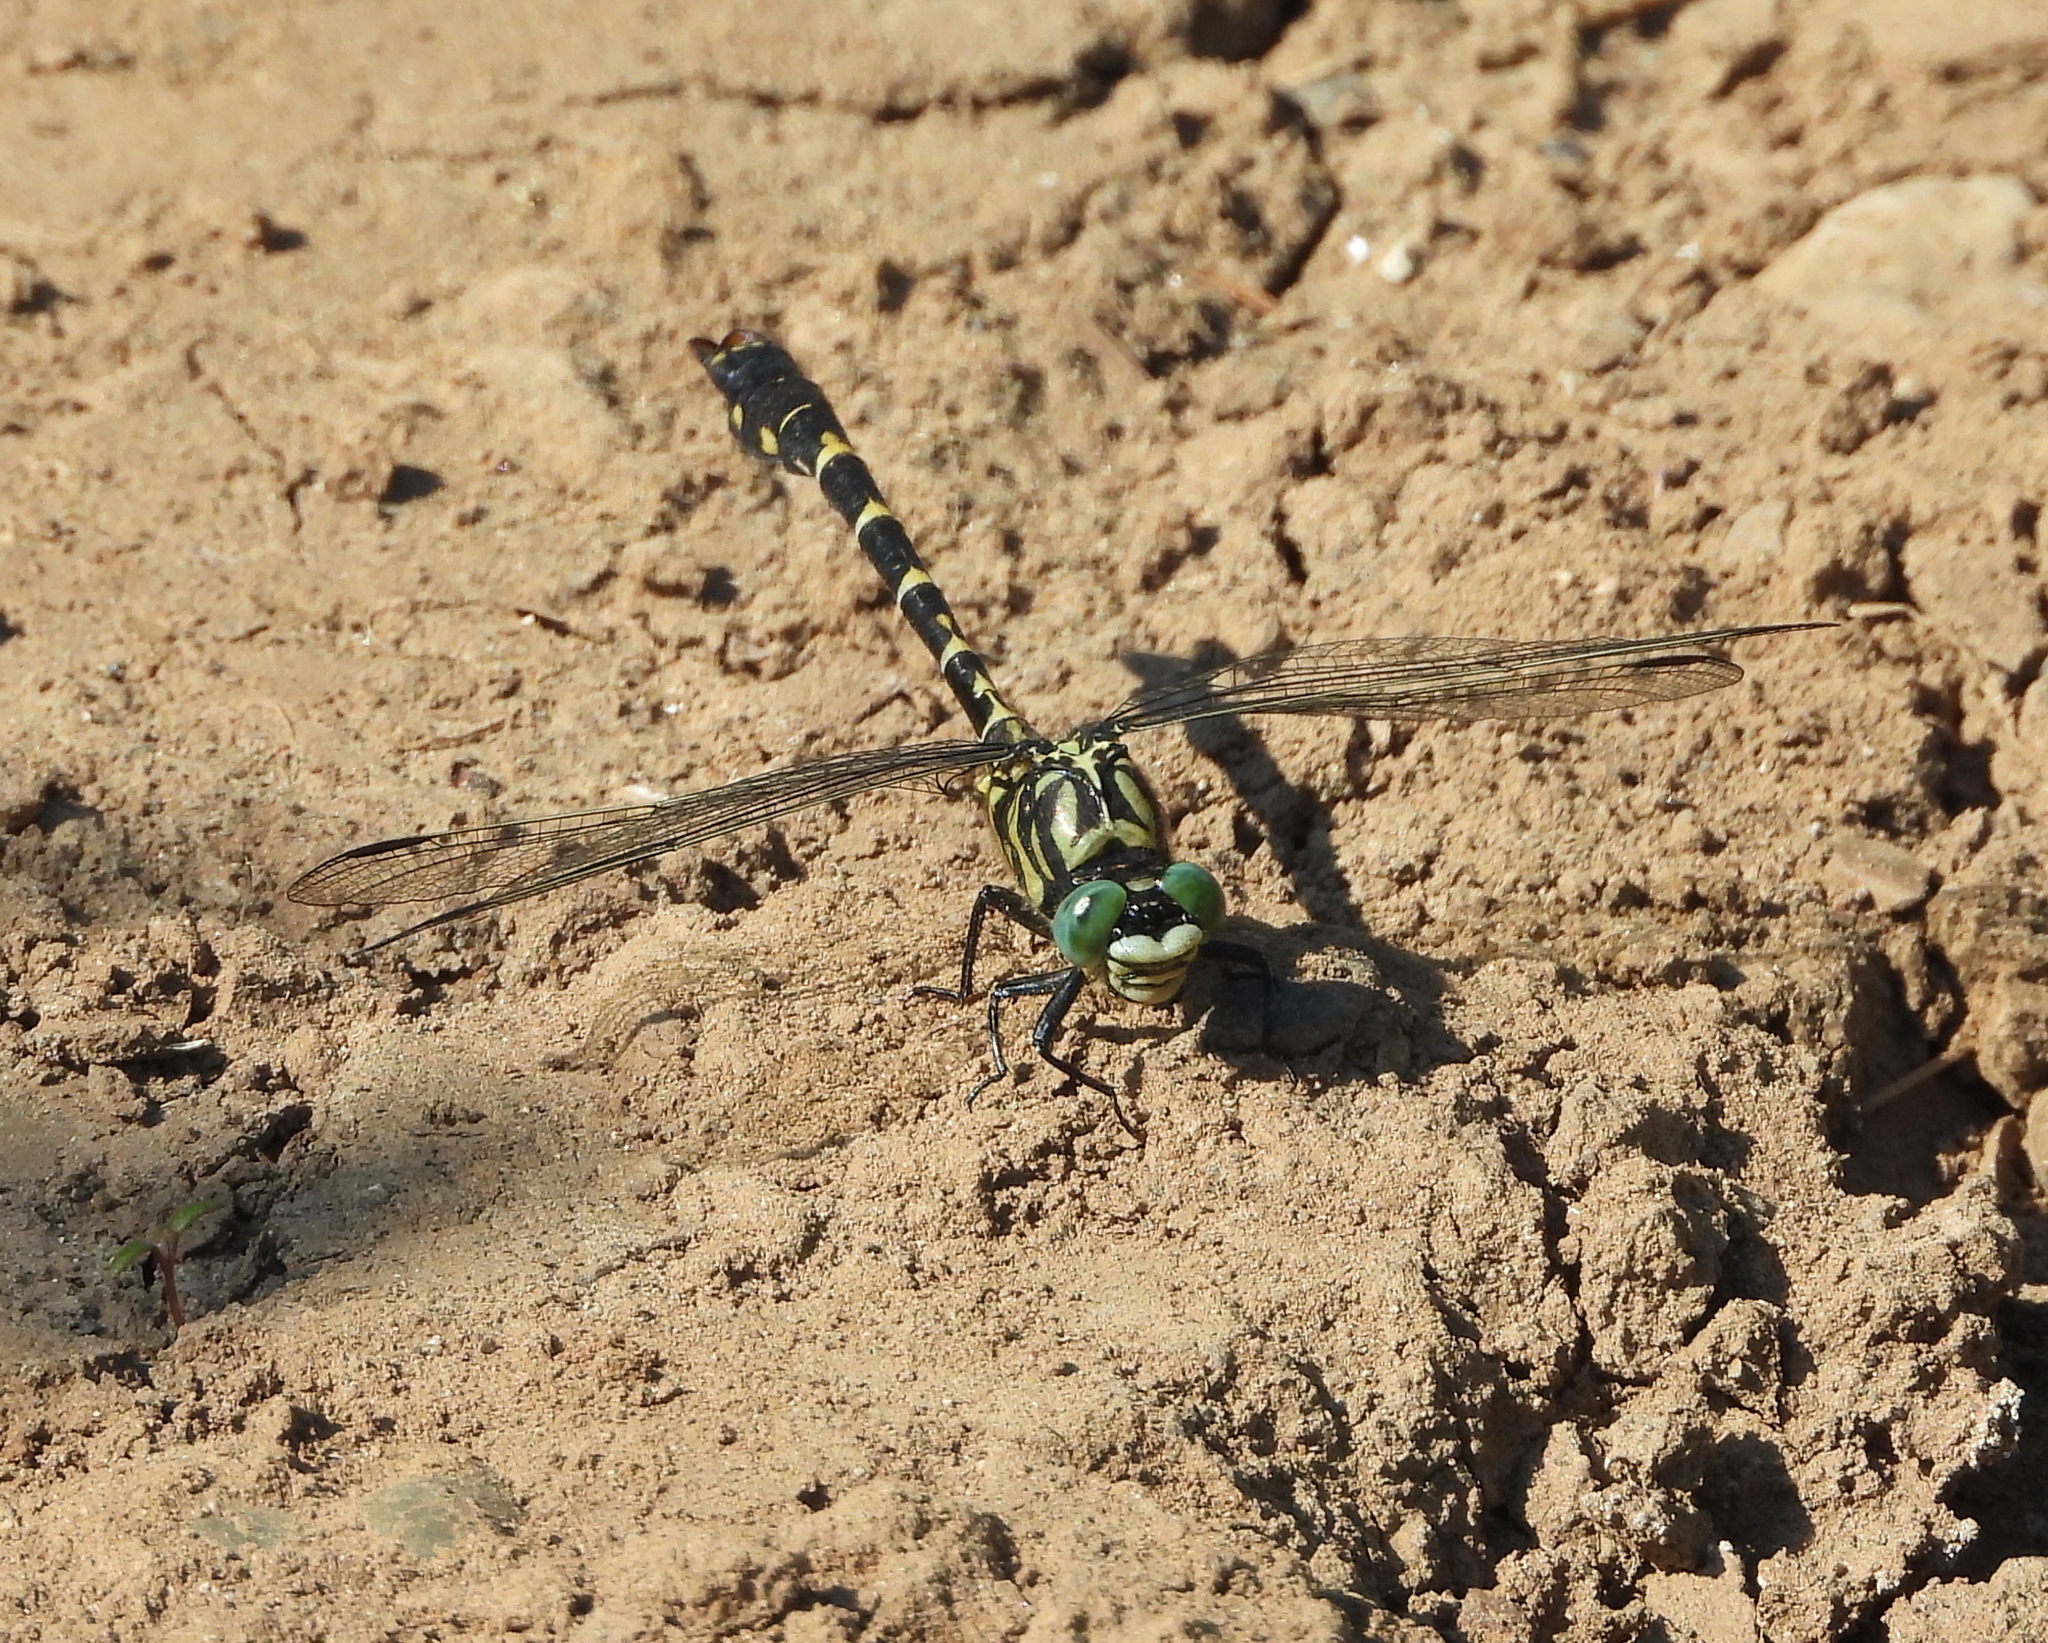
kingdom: Animalia
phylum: Arthropoda
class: Insecta
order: Odonata
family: Gomphidae
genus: Onychogomphus
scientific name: Onychogomphus forcipatus
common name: Small pincertail
